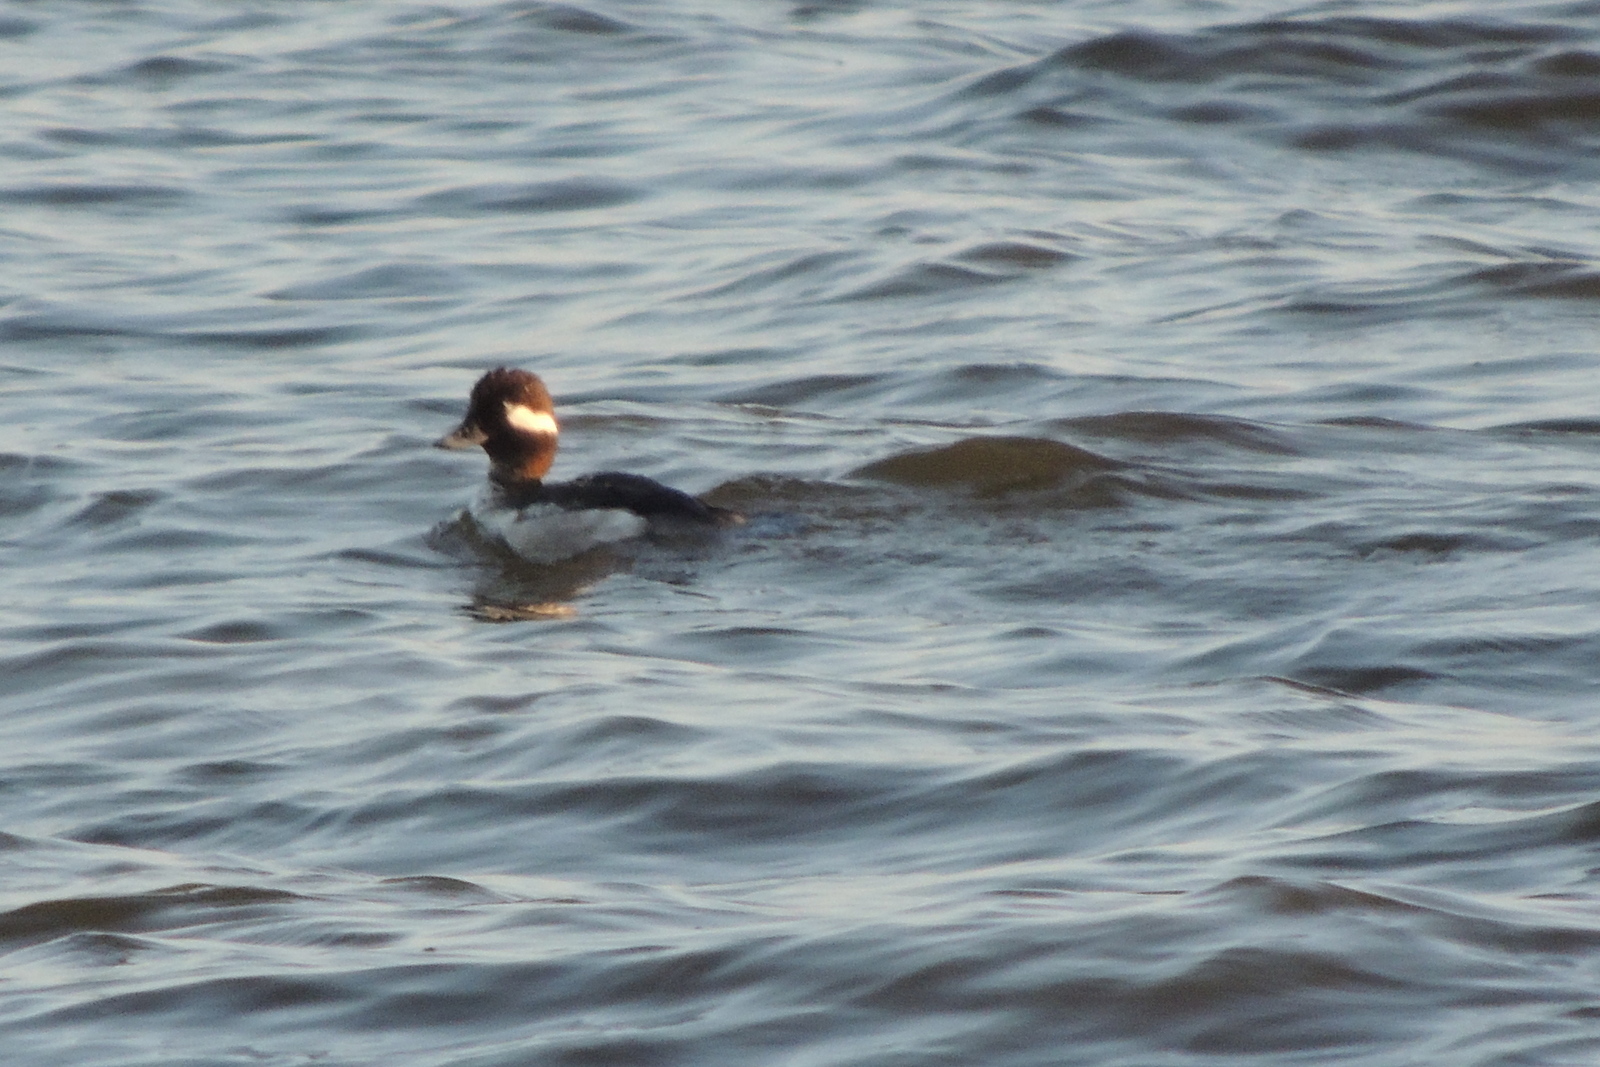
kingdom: Animalia
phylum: Chordata
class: Aves
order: Anseriformes
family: Anatidae
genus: Bucephala
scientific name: Bucephala albeola
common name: Bufflehead
